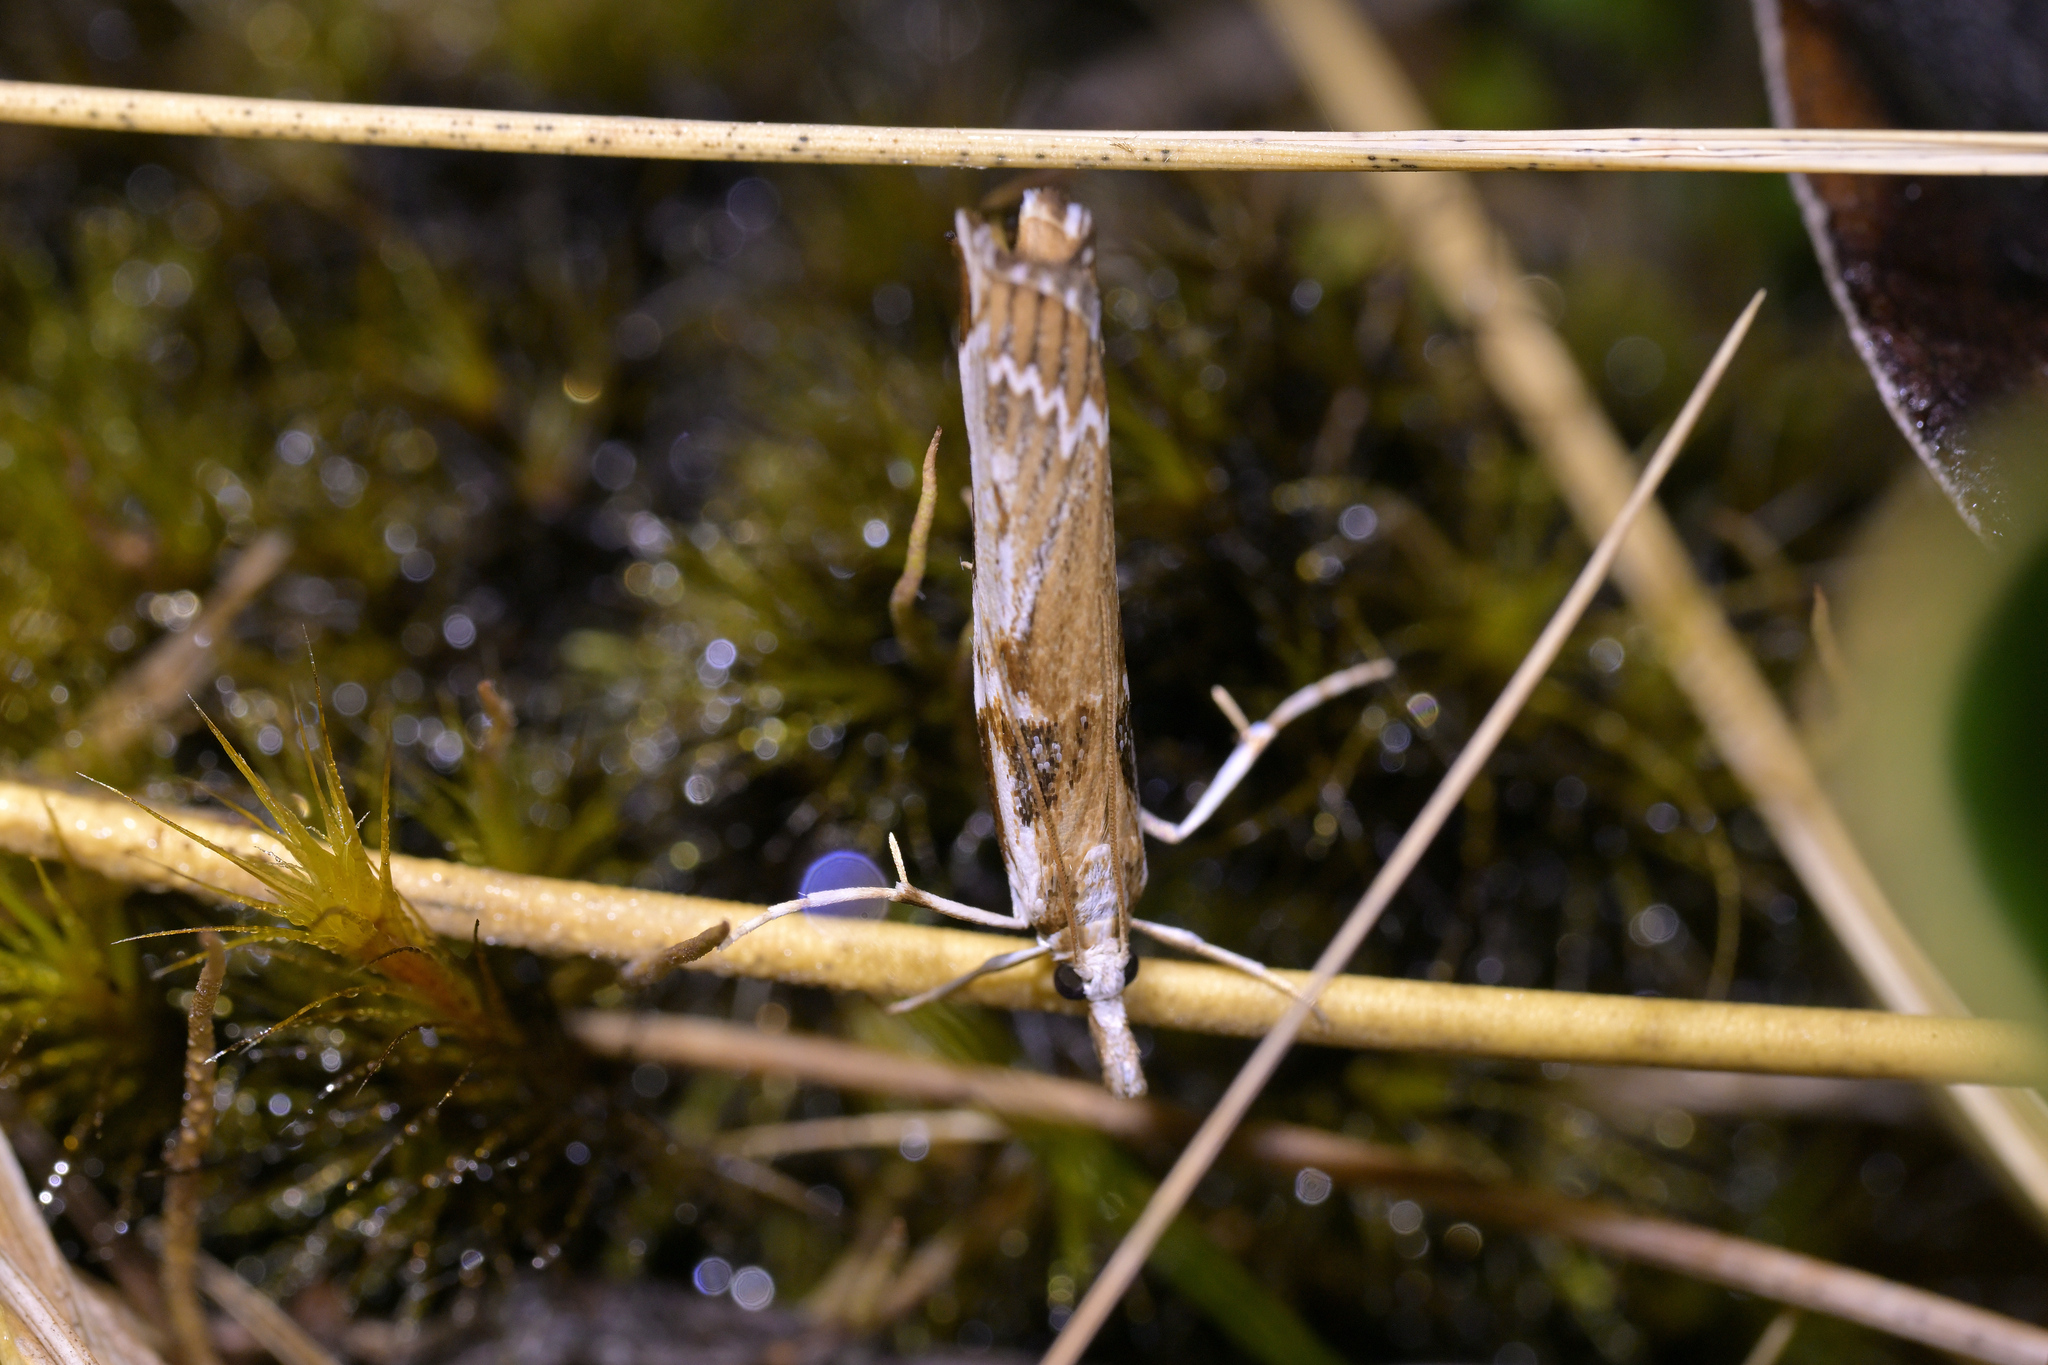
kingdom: Animalia
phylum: Arthropoda
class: Insecta
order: Lepidoptera
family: Crambidae
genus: Orocrambus
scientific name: Orocrambus tuhualis
